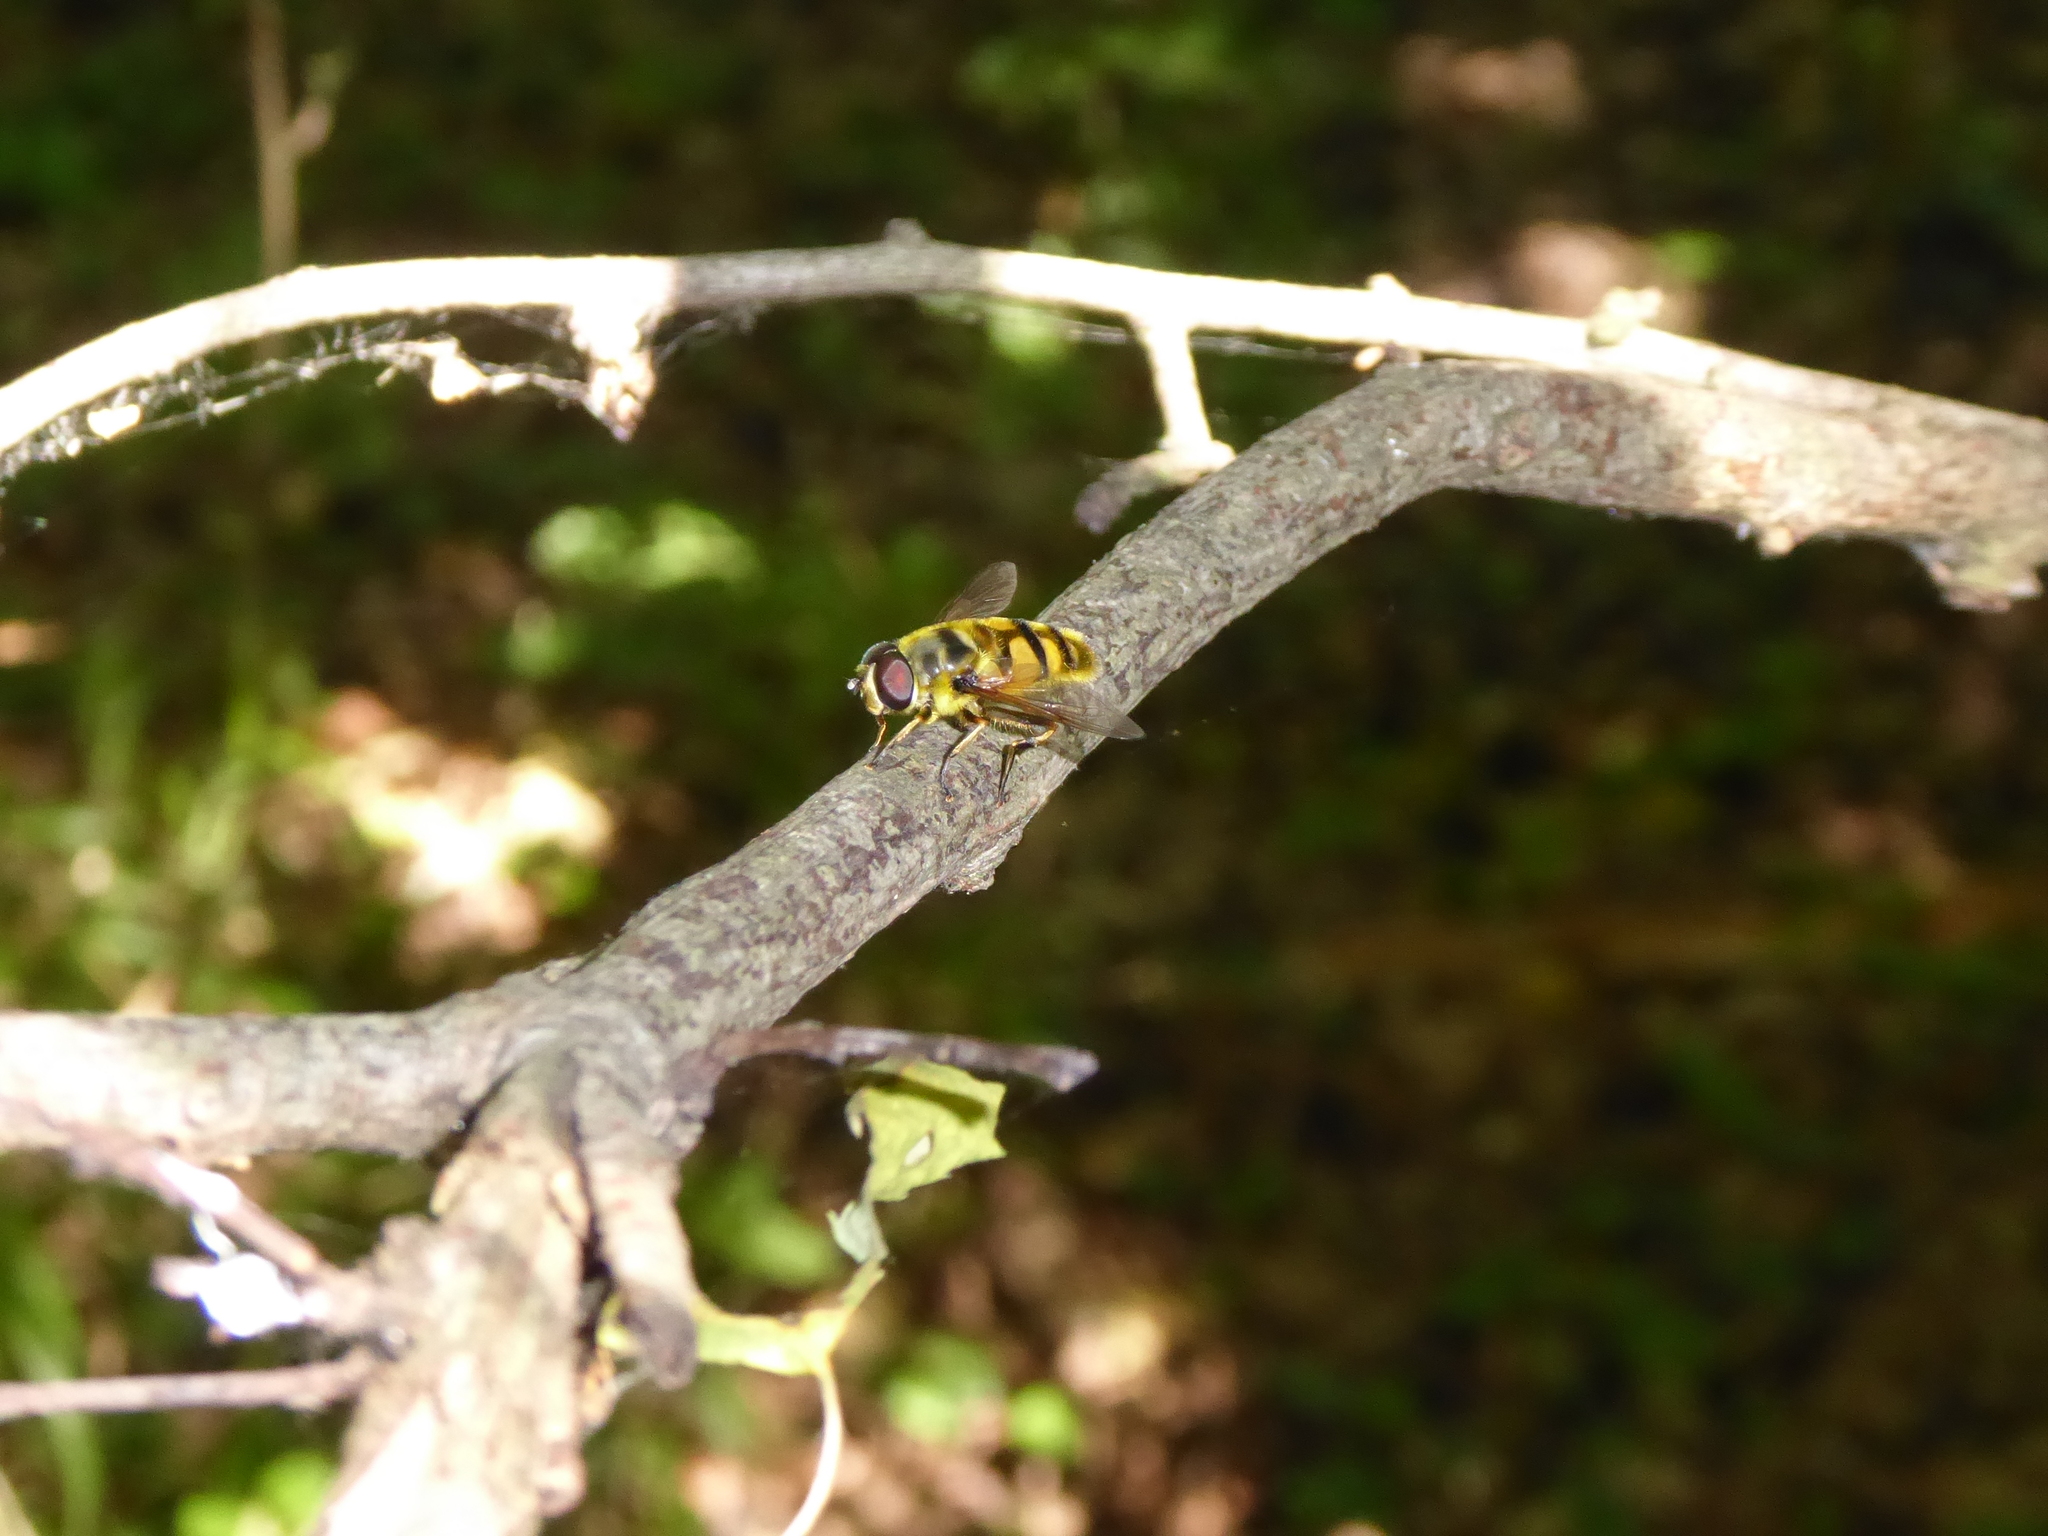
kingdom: Animalia
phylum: Arthropoda
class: Insecta
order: Diptera
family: Syrphidae
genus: Myathropa
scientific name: Myathropa florea
